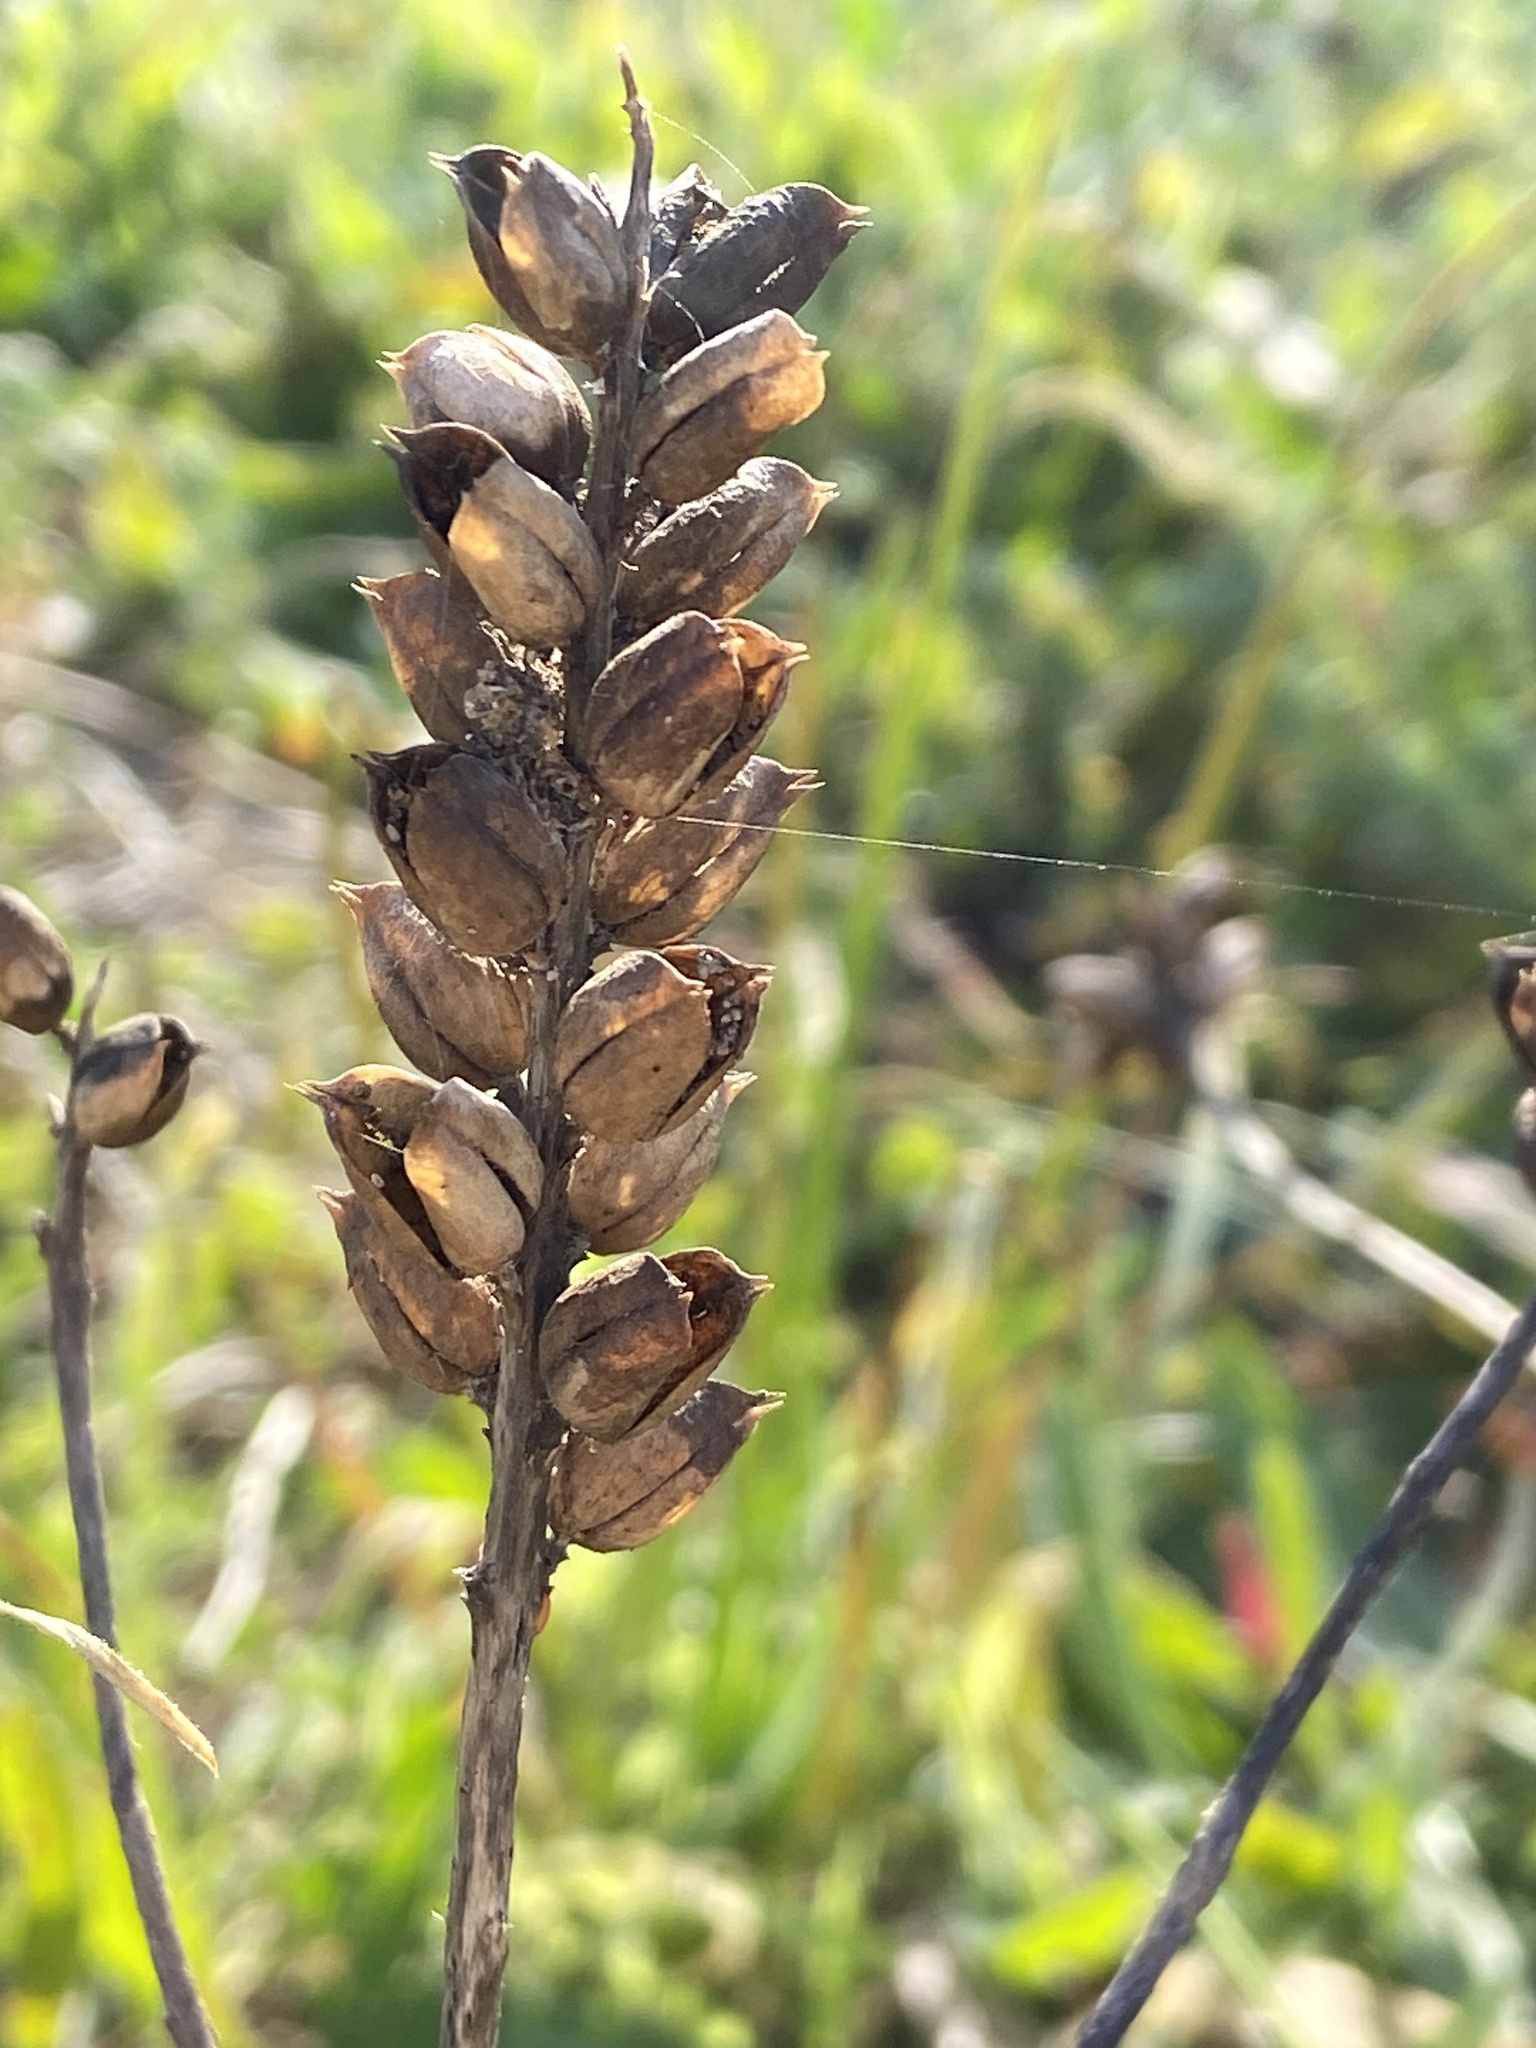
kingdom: Plantae
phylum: Tracheophyta
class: Magnoliopsida
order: Lamiales
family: Orobanchaceae
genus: Bellardia
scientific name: Bellardia trixago
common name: Mediterranean lineseed
